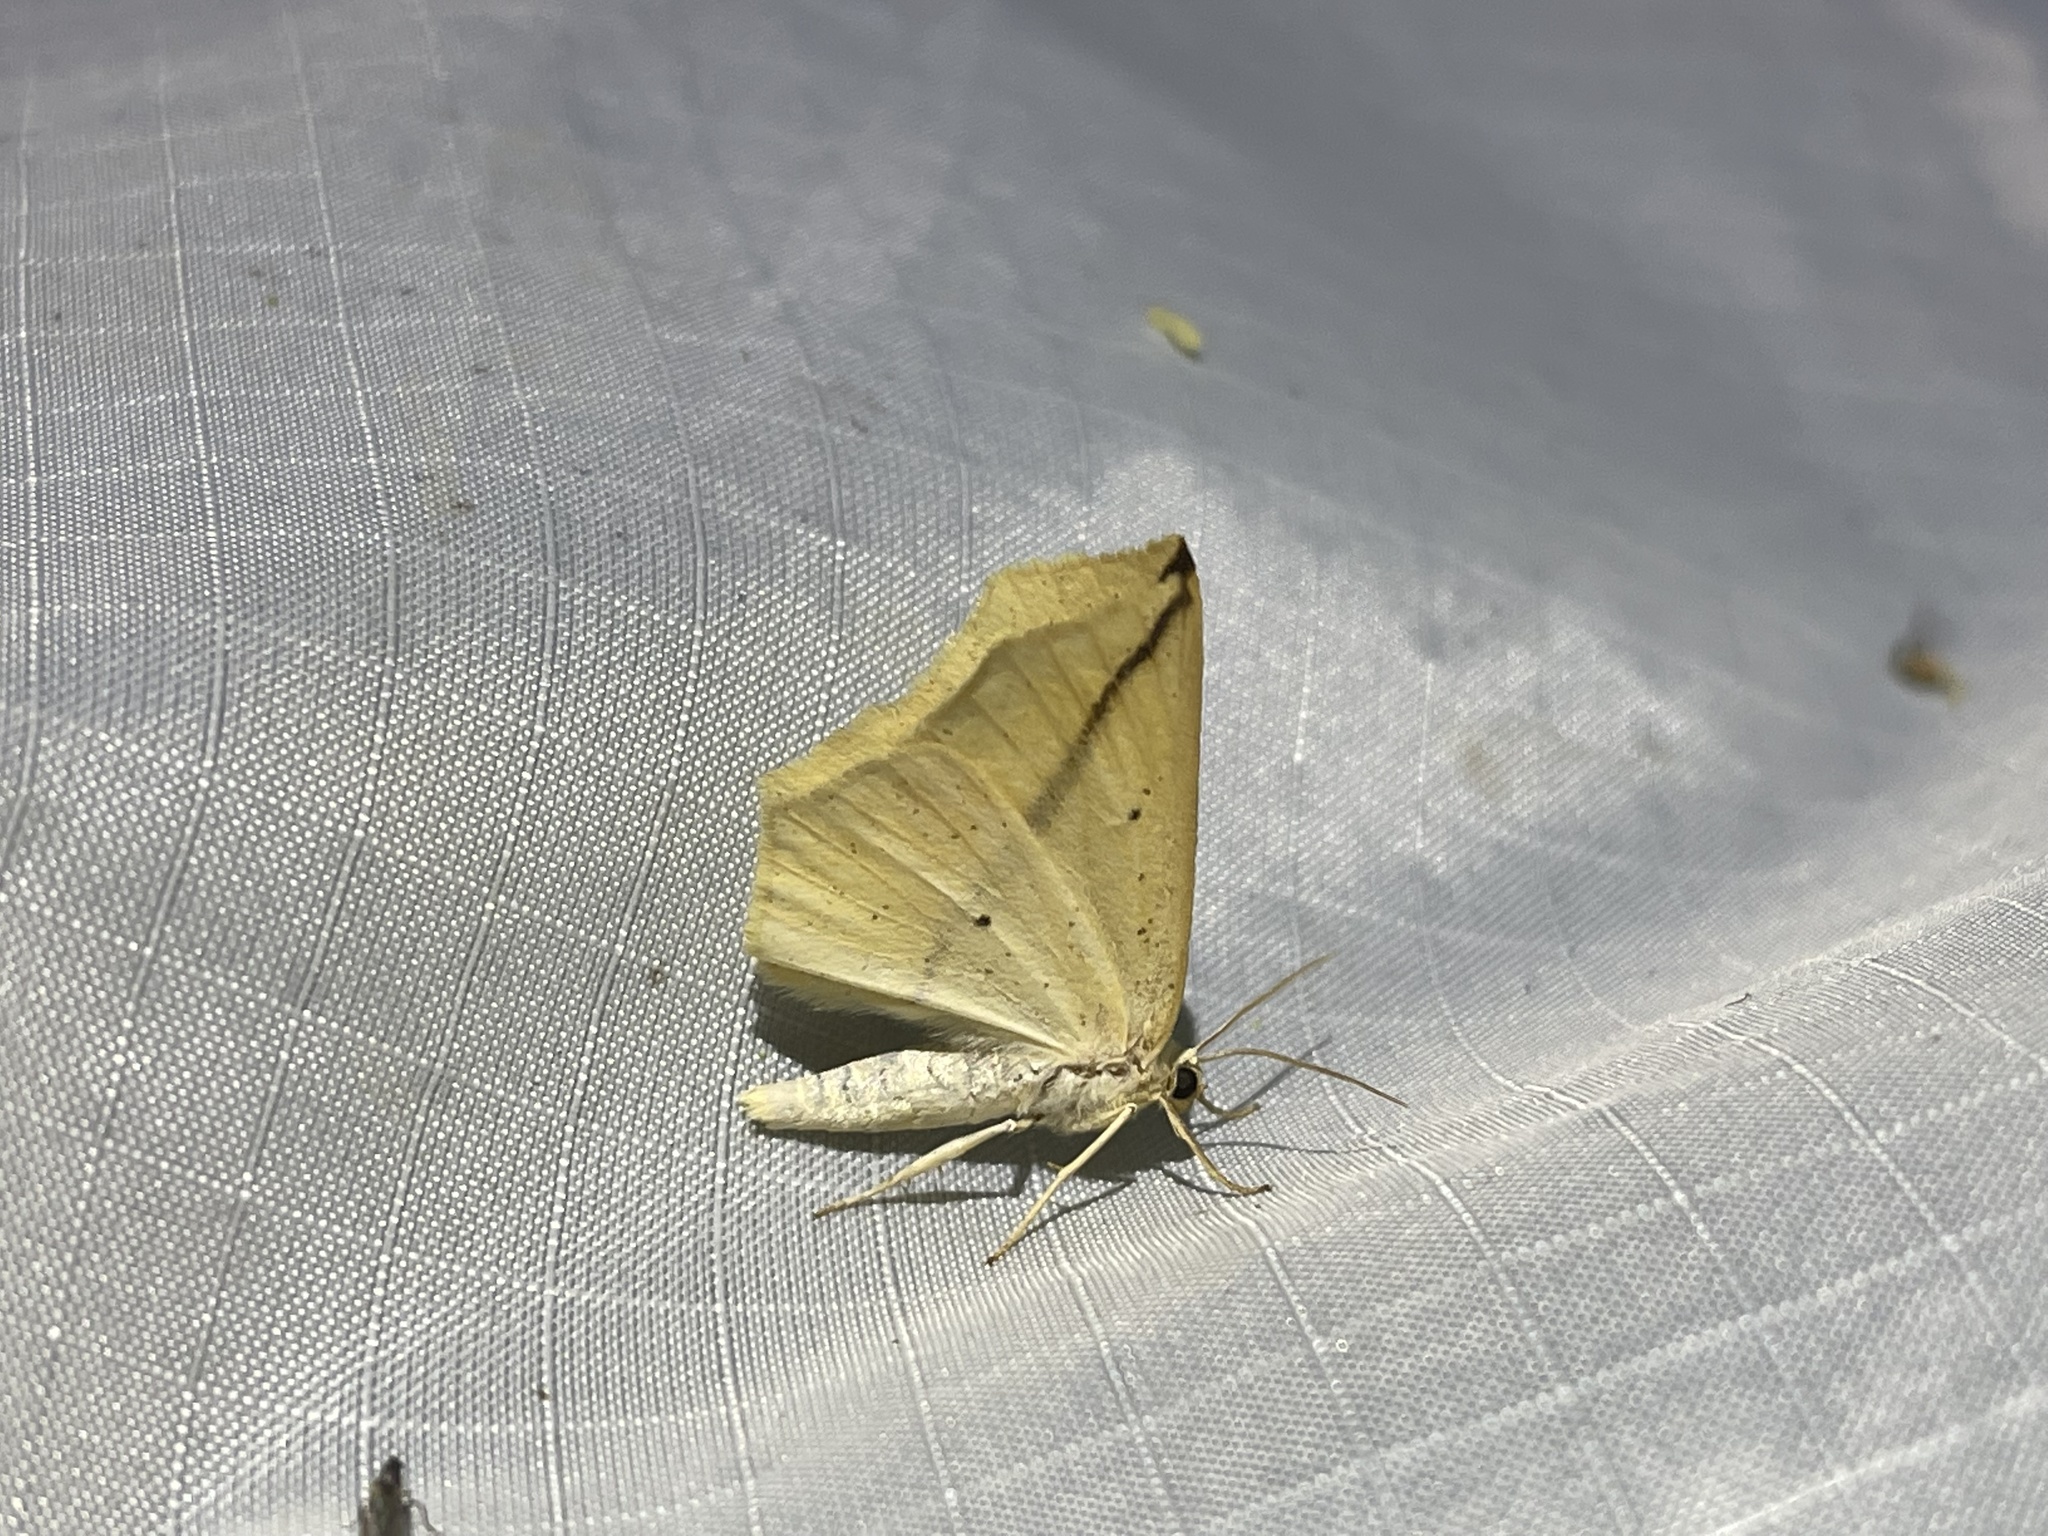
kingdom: Animalia
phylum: Arthropoda
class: Insecta
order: Lepidoptera
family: Geometridae
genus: Tetracis
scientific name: Tetracis crocallata
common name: Yellow slant-line
